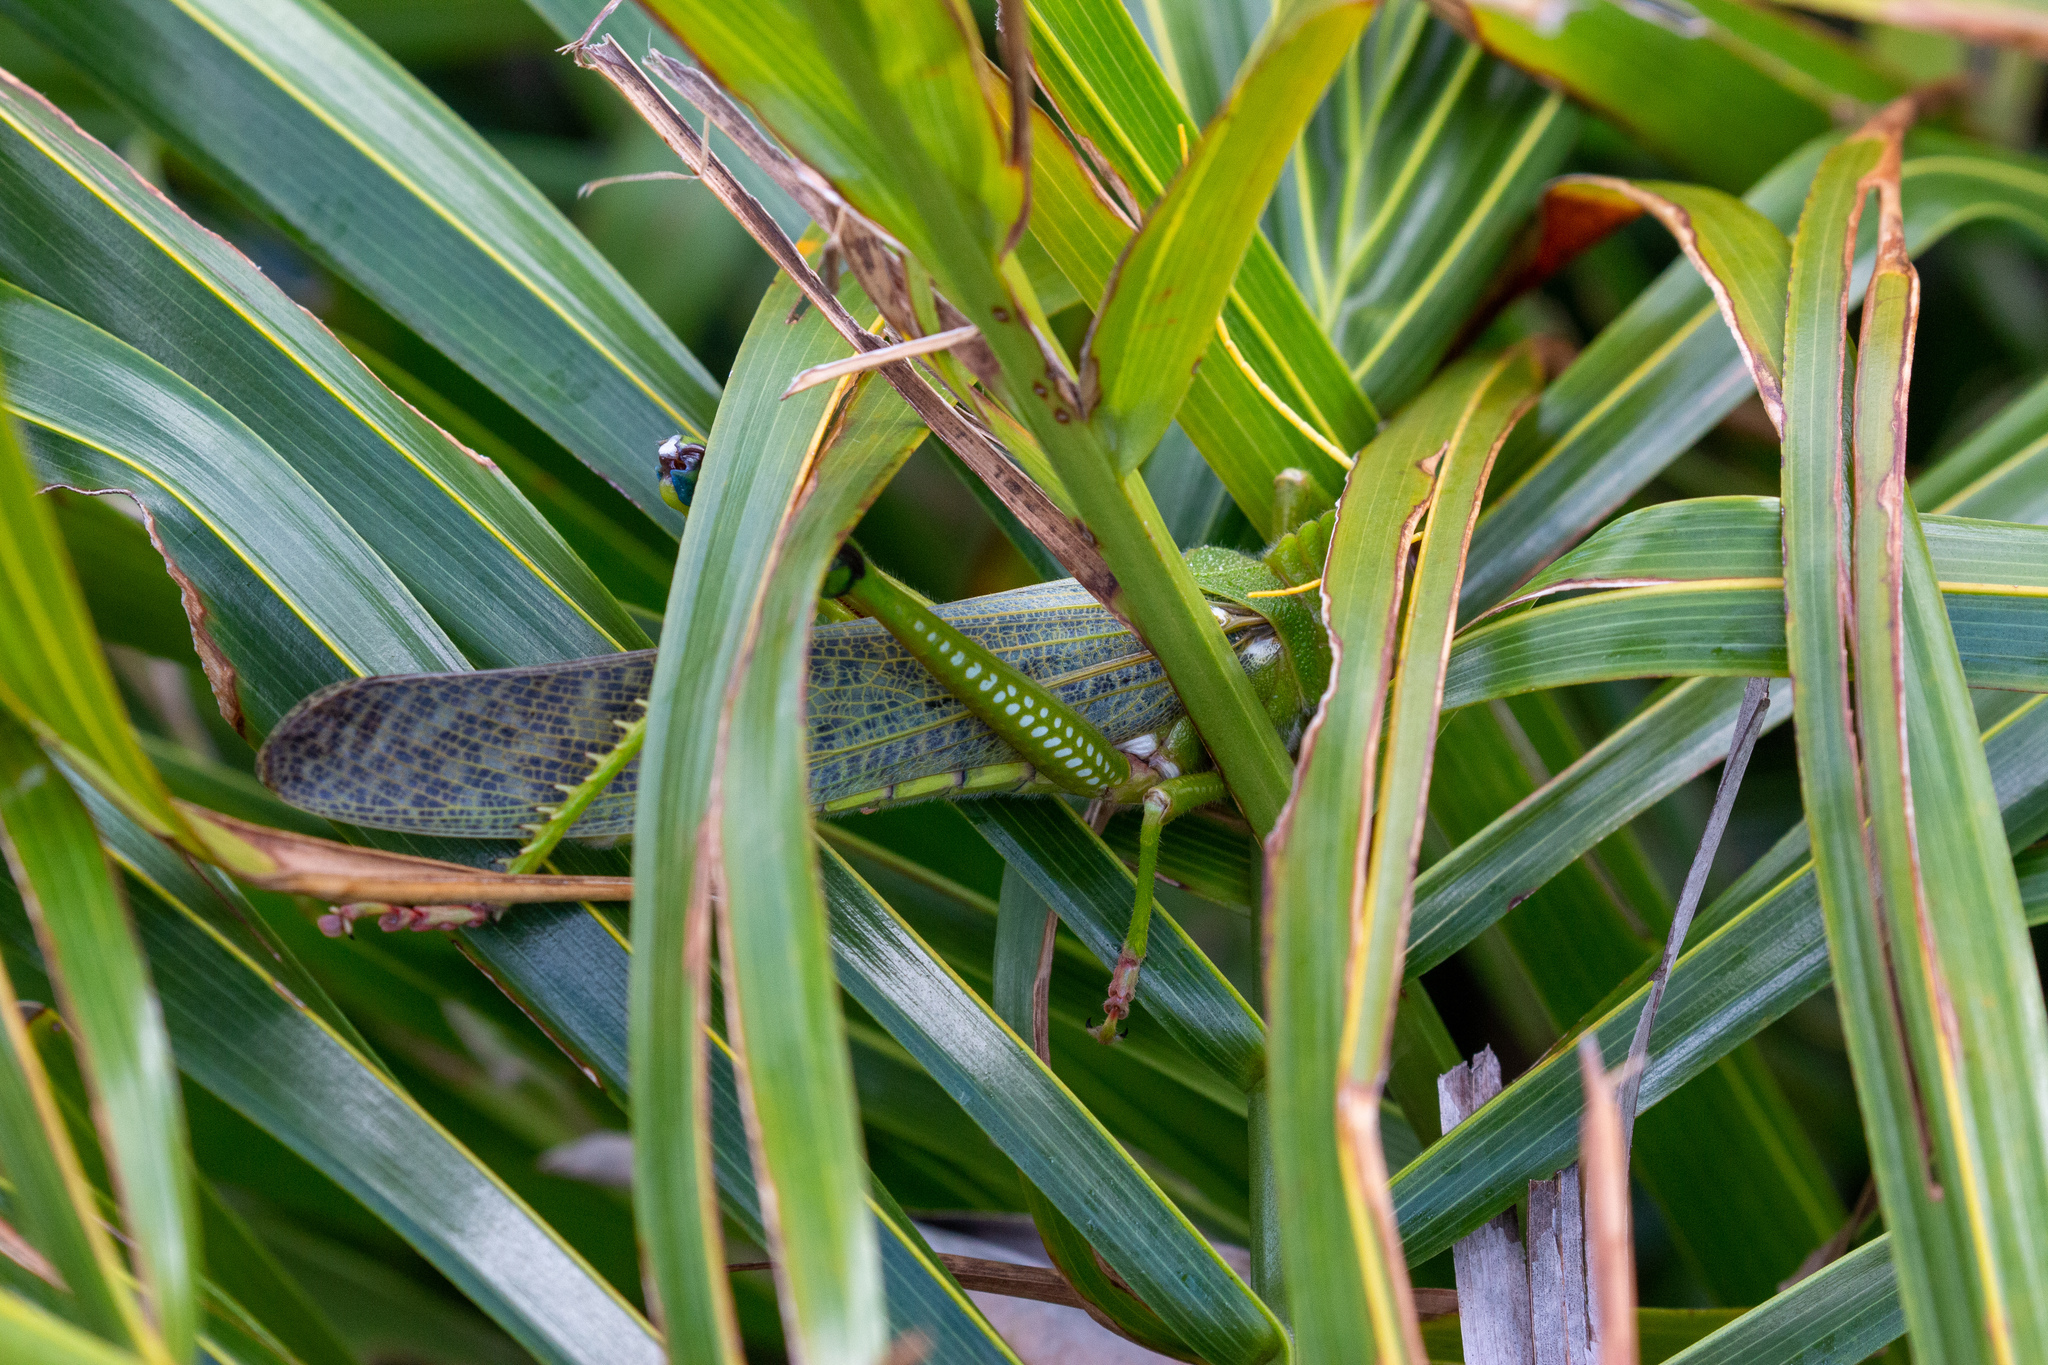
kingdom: Animalia
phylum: Arthropoda
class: Insecta
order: Orthoptera
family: Romaleidae
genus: Tropidacris
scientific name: Tropidacris collaris
